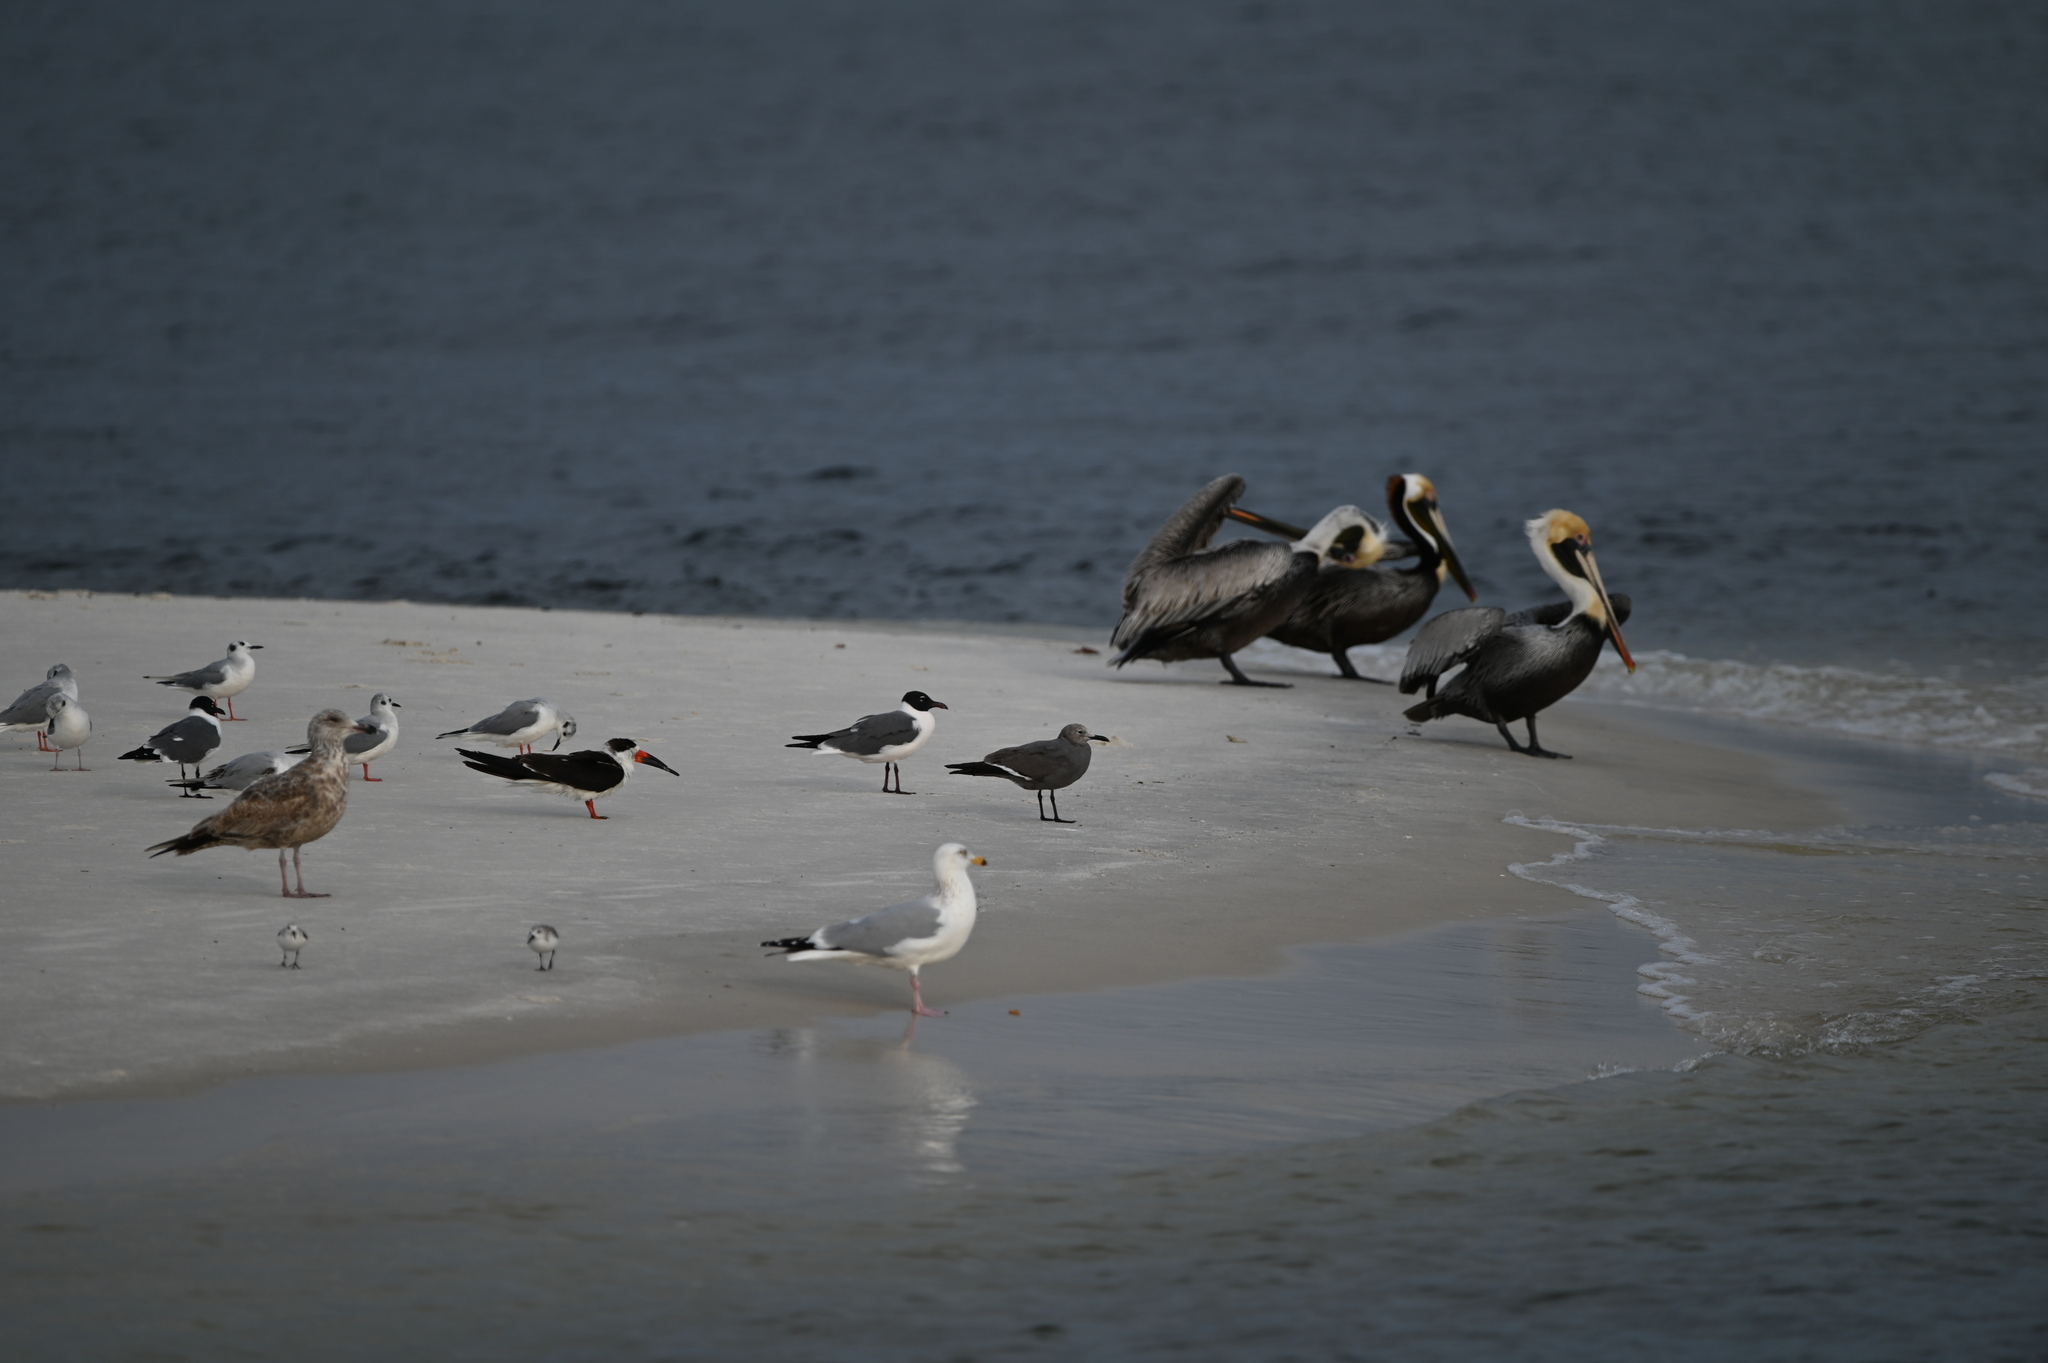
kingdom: Animalia
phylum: Chordata
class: Aves
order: Charadriiformes
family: Laridae
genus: Leucophaeus
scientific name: Leucophaeus modestus
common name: Gray gull
